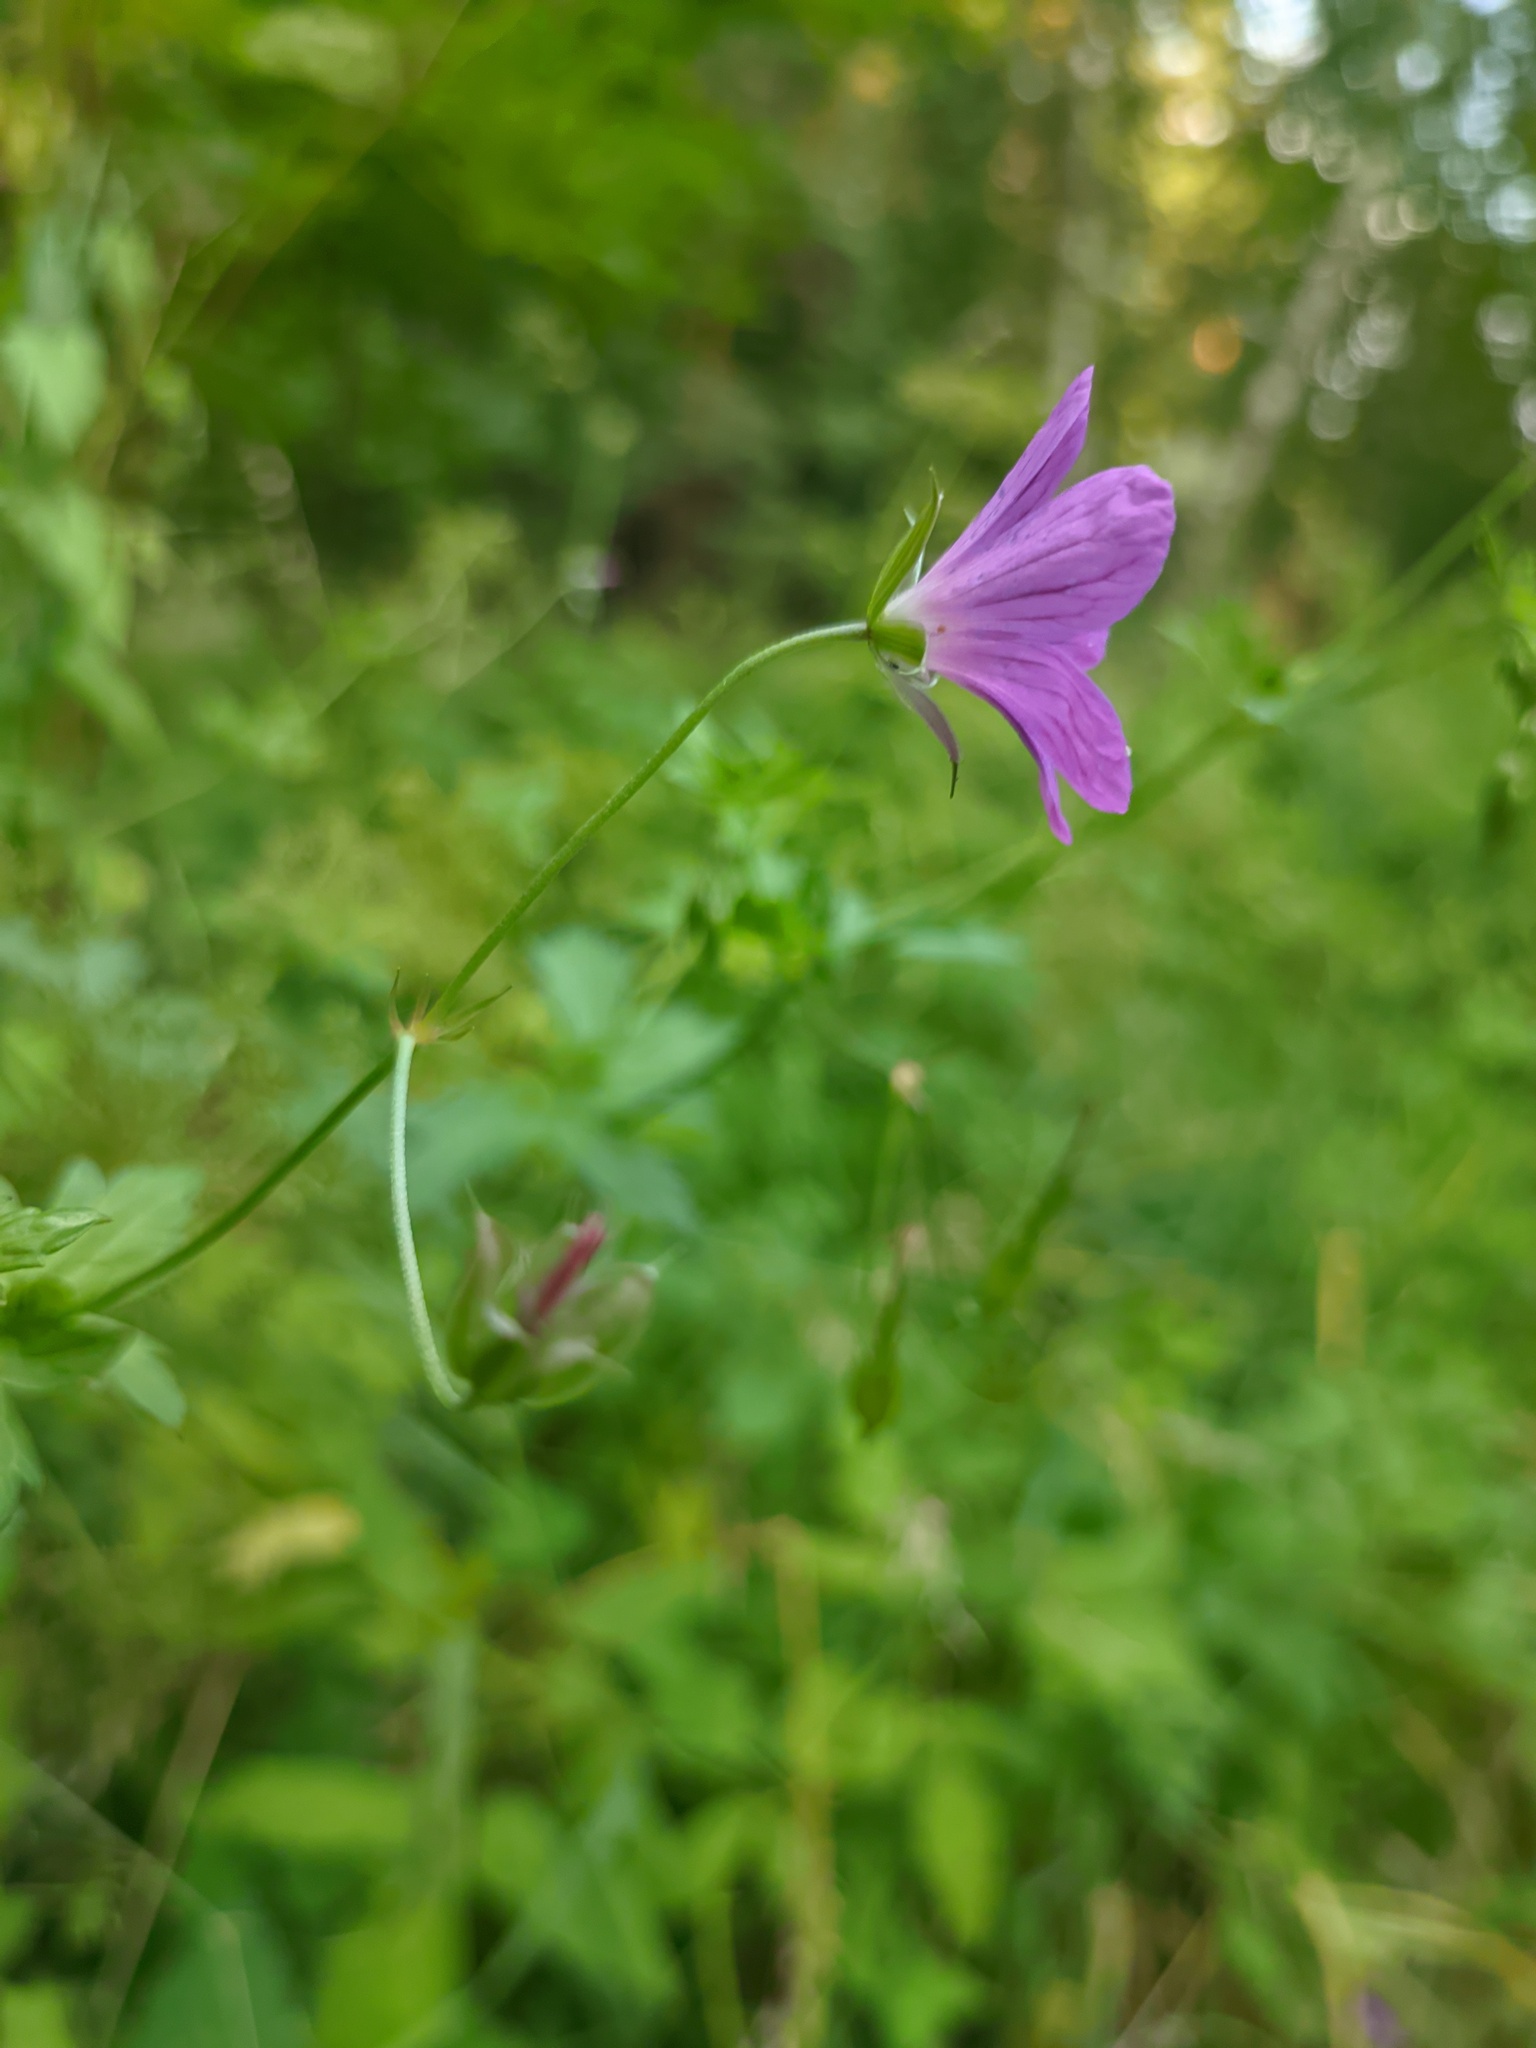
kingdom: Plantae
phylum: Tracheophyta
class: Magnoliopsida
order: Geraniales
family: Geraniaceae
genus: Geranium
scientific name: Geranium palustre
